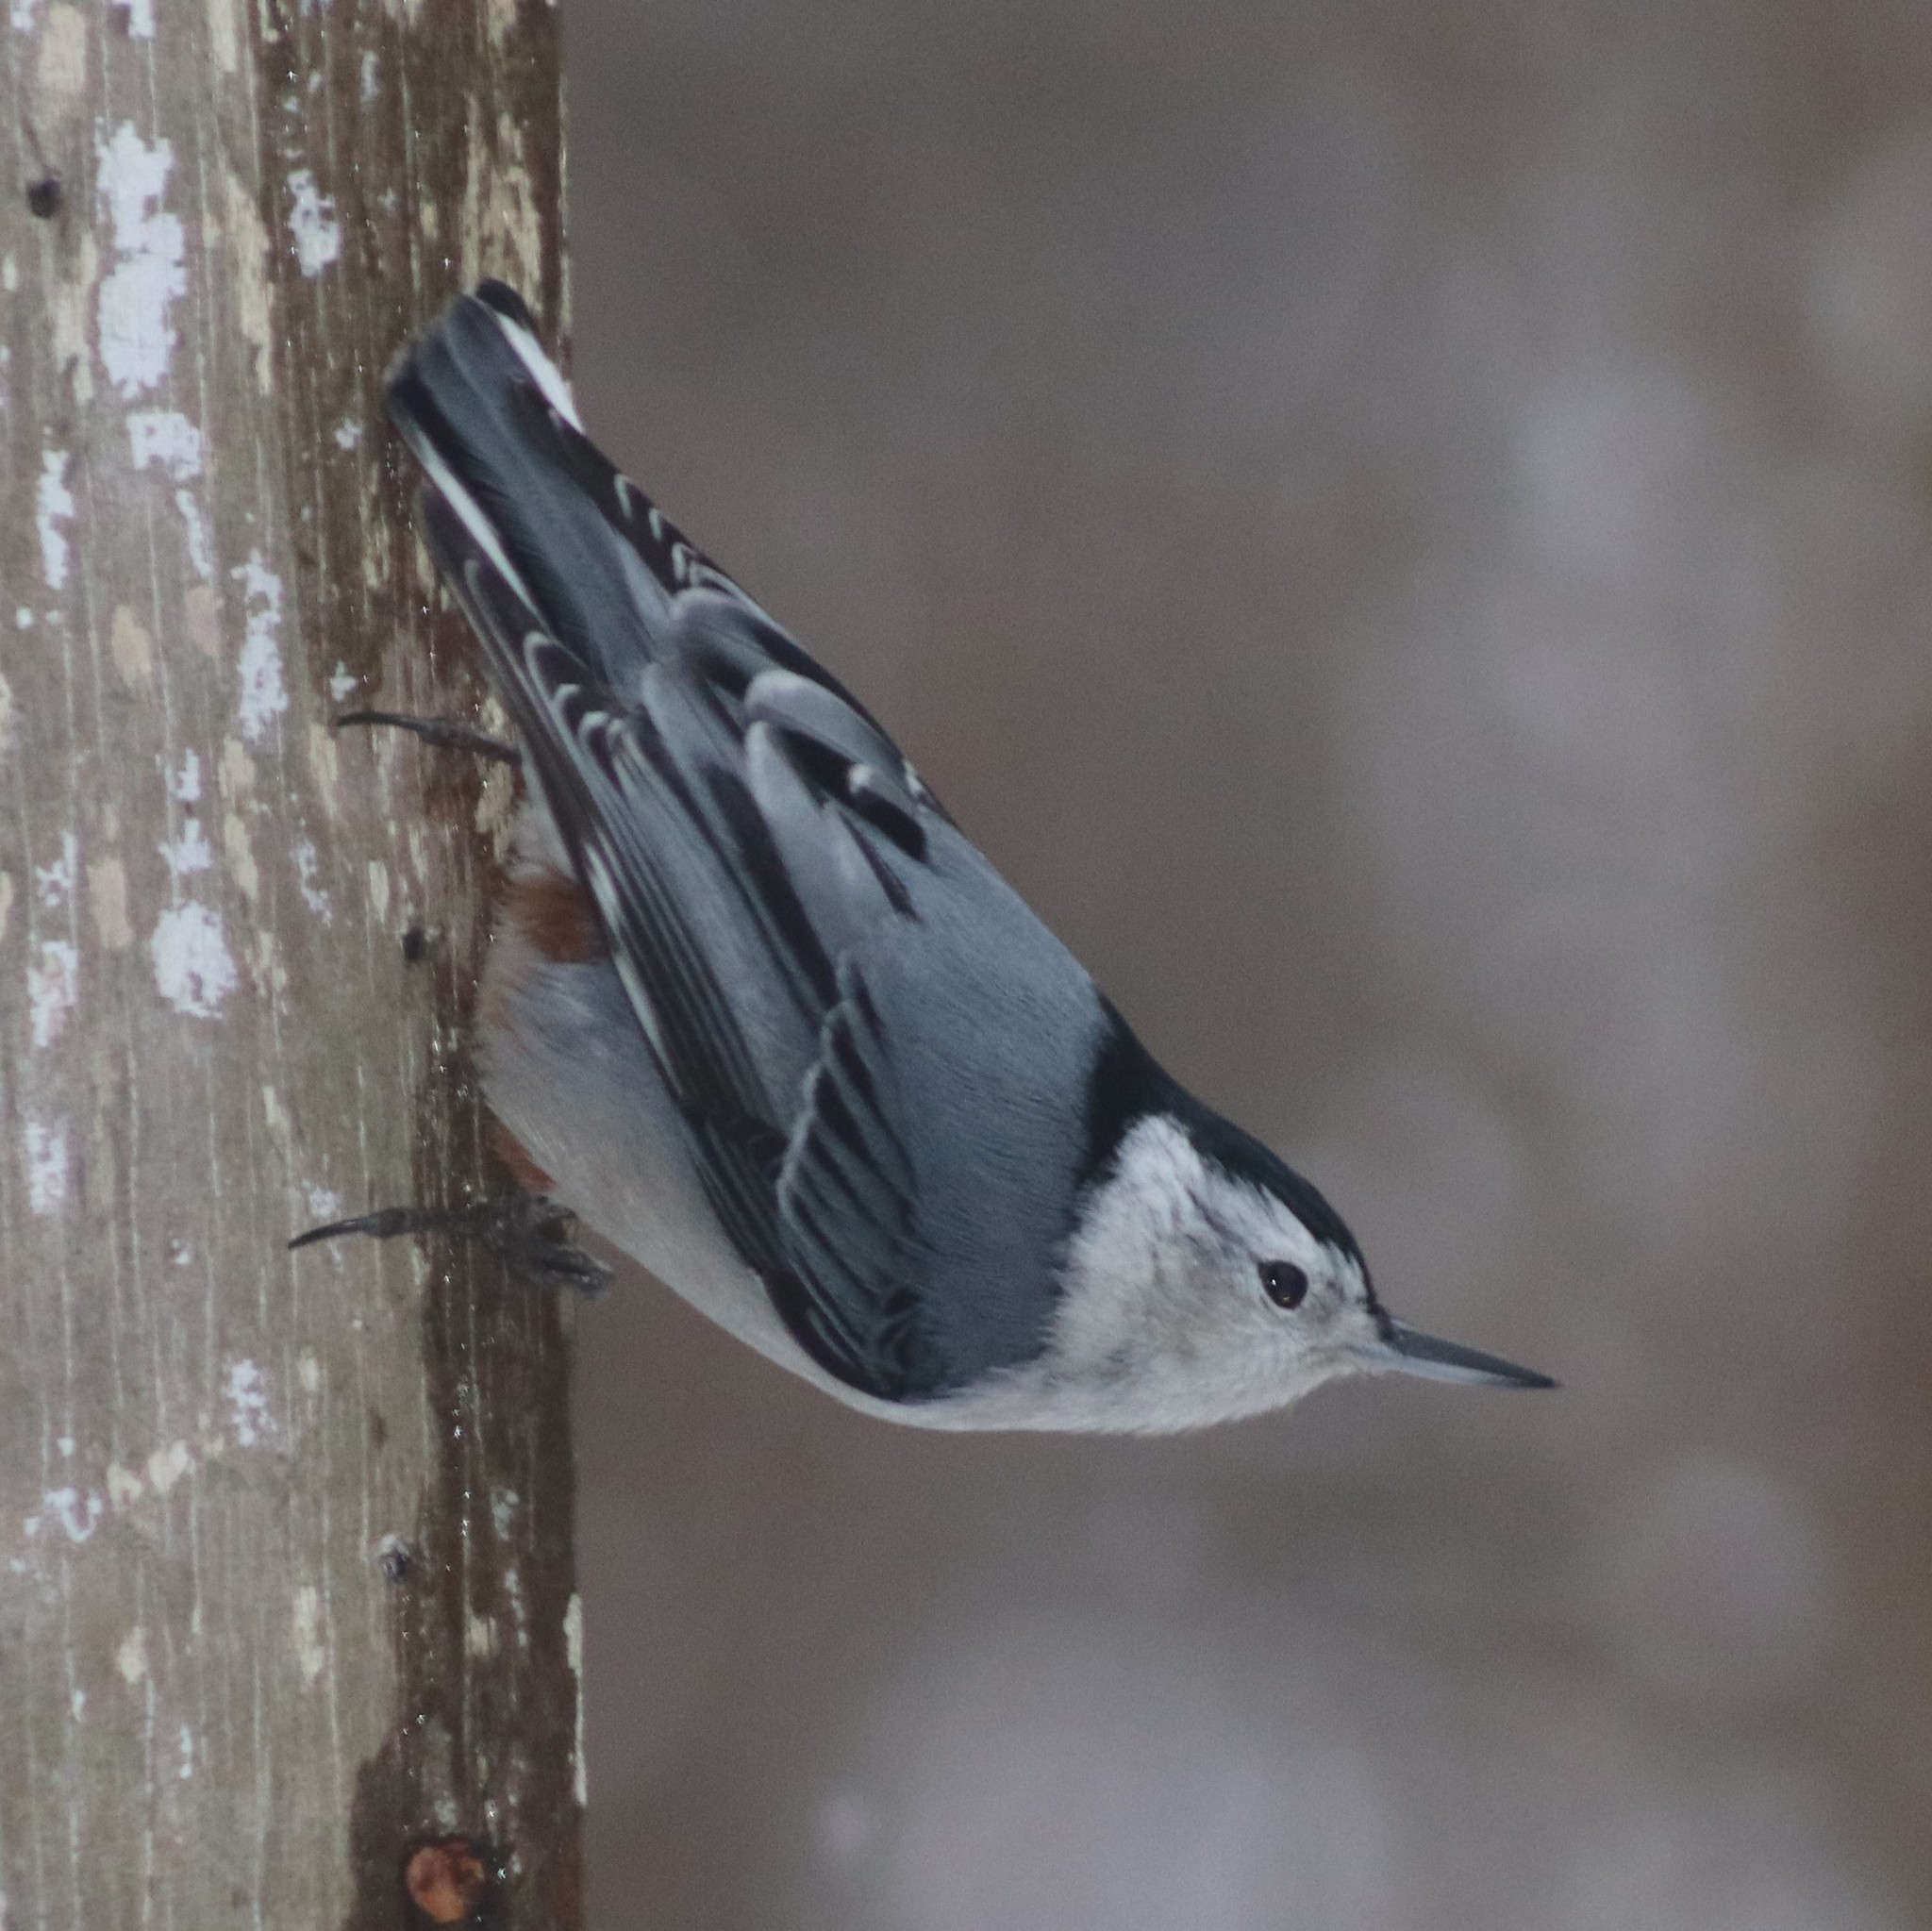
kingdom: Animalia
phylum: Chordata
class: Aves
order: Passeriformes
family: Sittidae
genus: Sitta
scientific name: Sitta carolinensis
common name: White-breasted nuthatch
